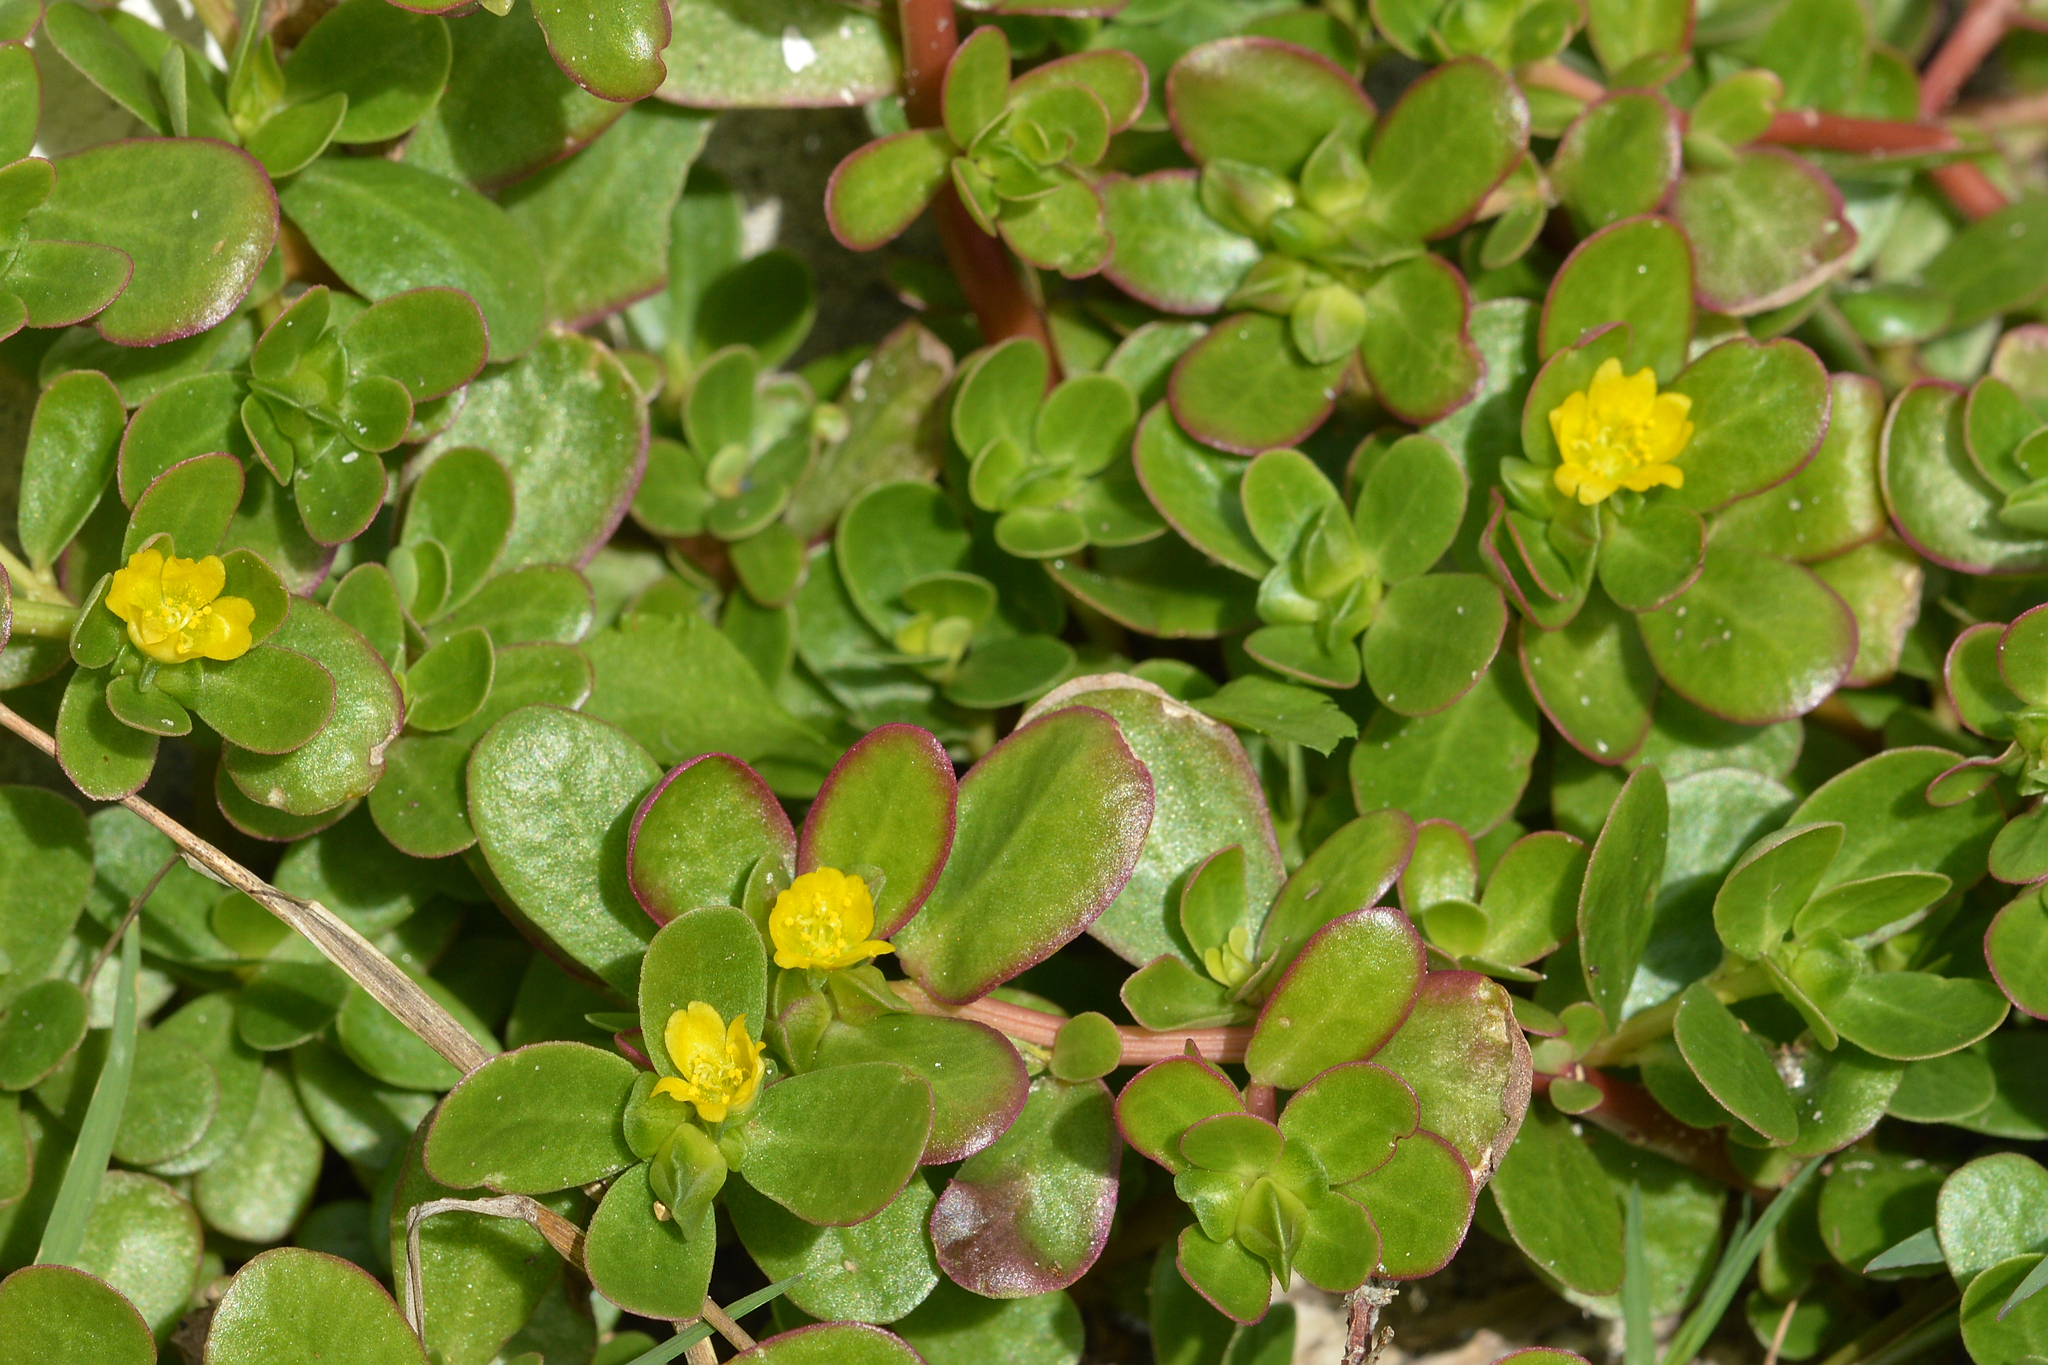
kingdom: Plantae
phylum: Tracheophyta
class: Magnoliopsida
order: Caryophyllales
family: Portulacaceae
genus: Portulaca
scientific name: Portulaca oleracea
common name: Common purslane
